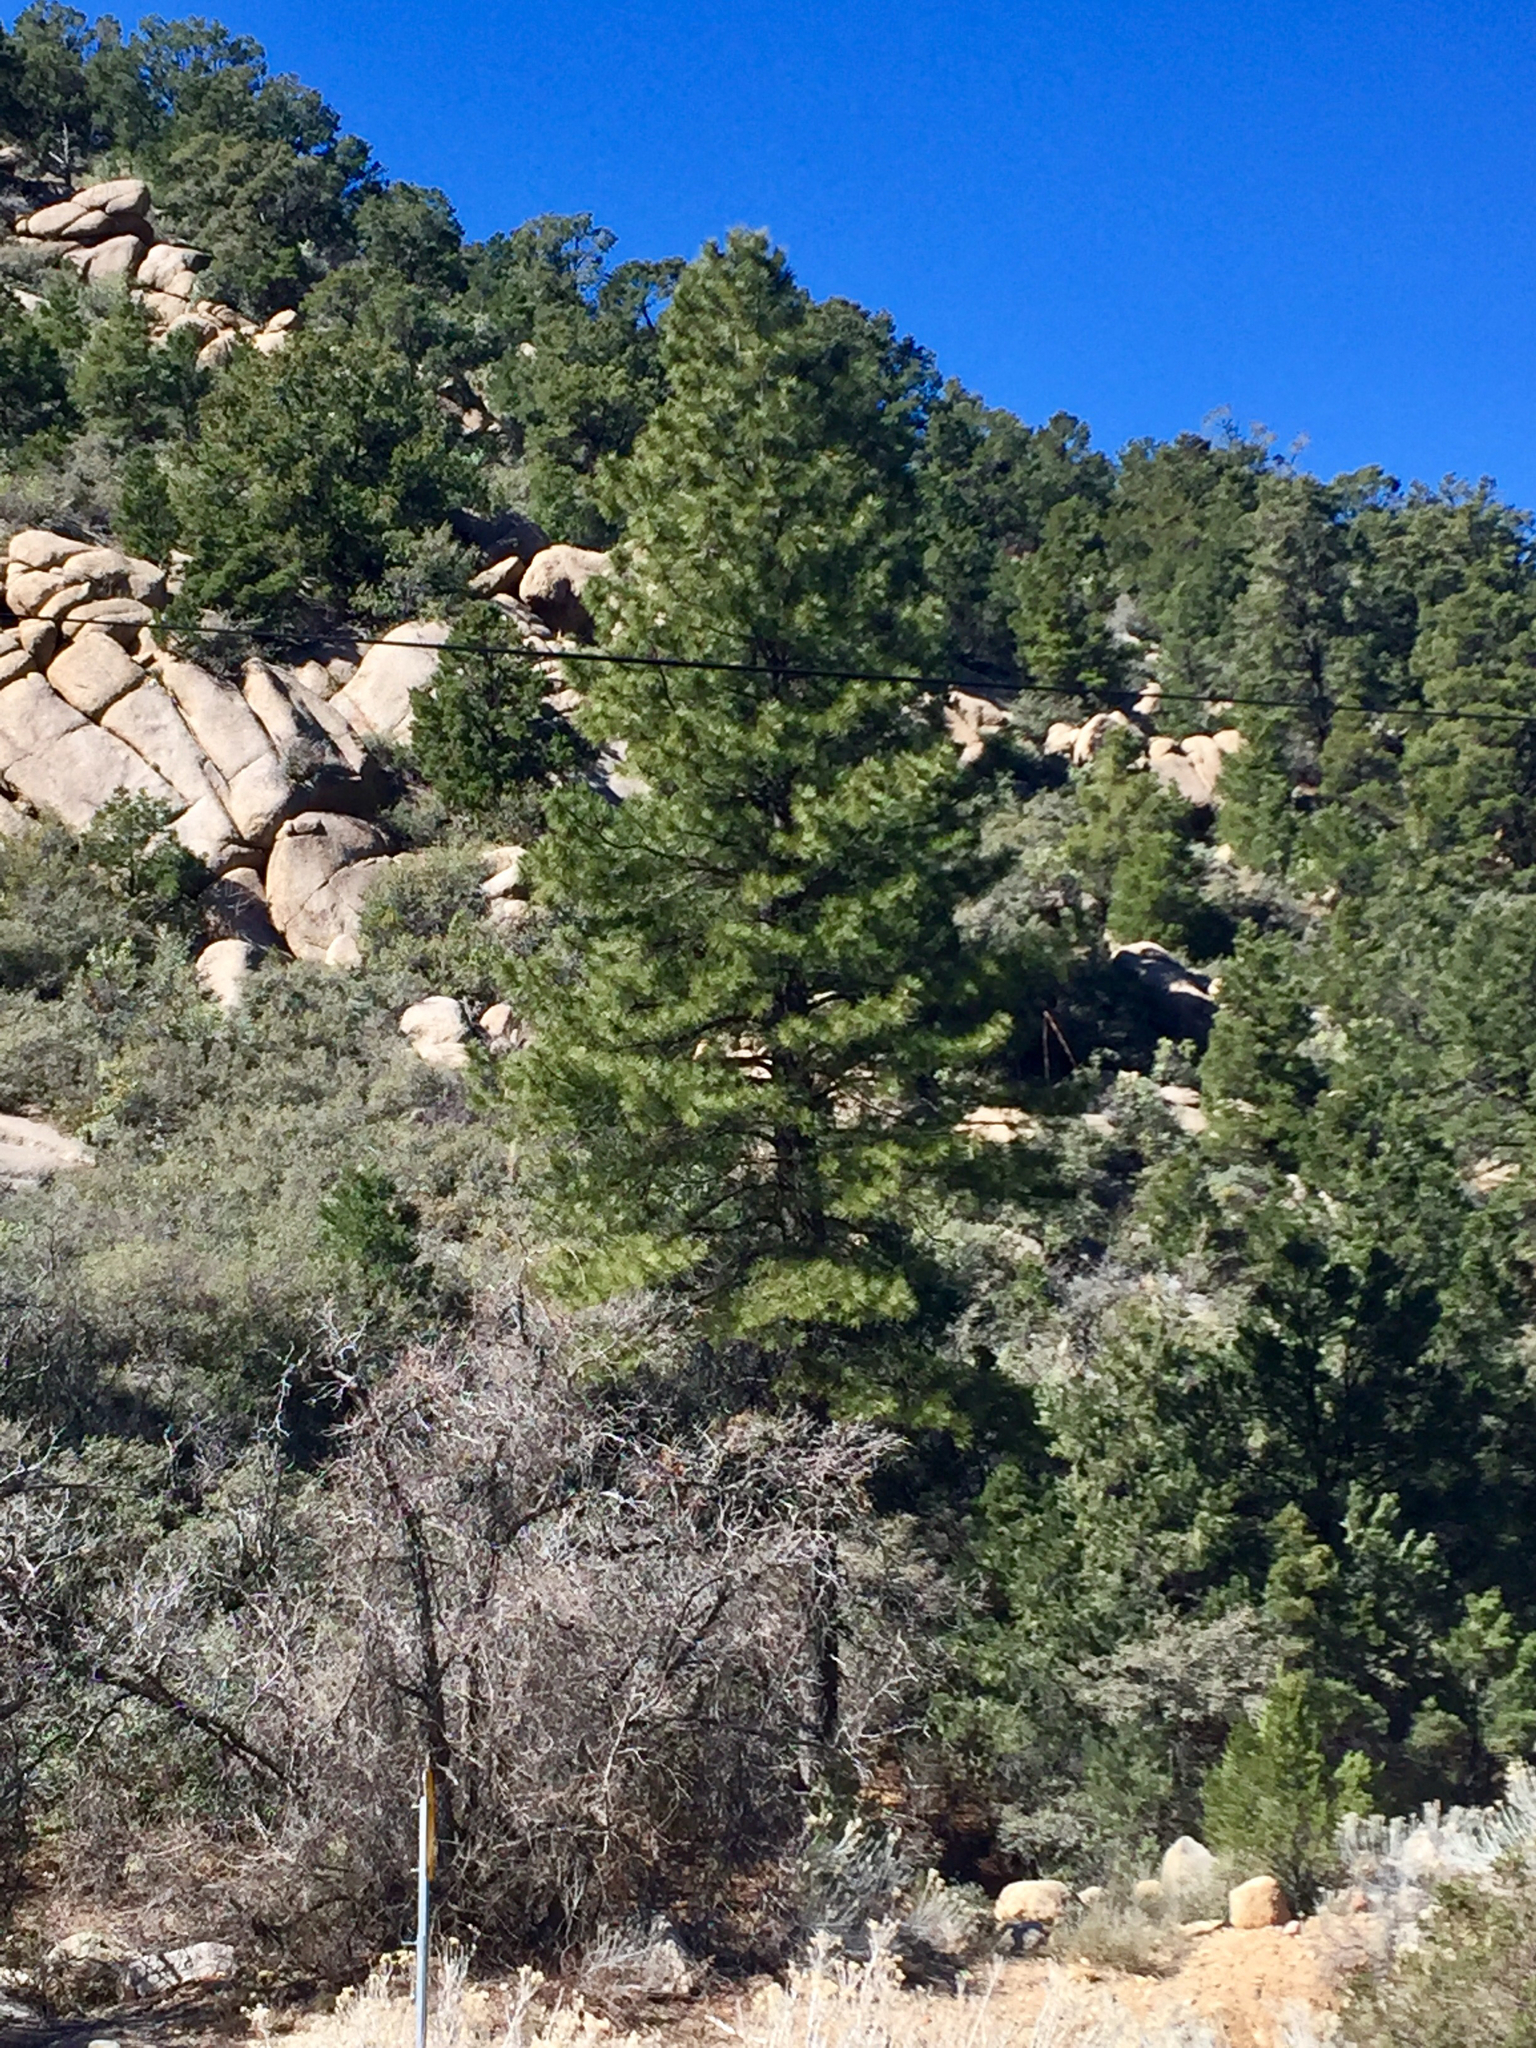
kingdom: Plantae
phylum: Tracheophyta
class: Pinopsida
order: Pinales
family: Pinaceae
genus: Pinus
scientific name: Pinus ponderosa
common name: Western yellow-pine
